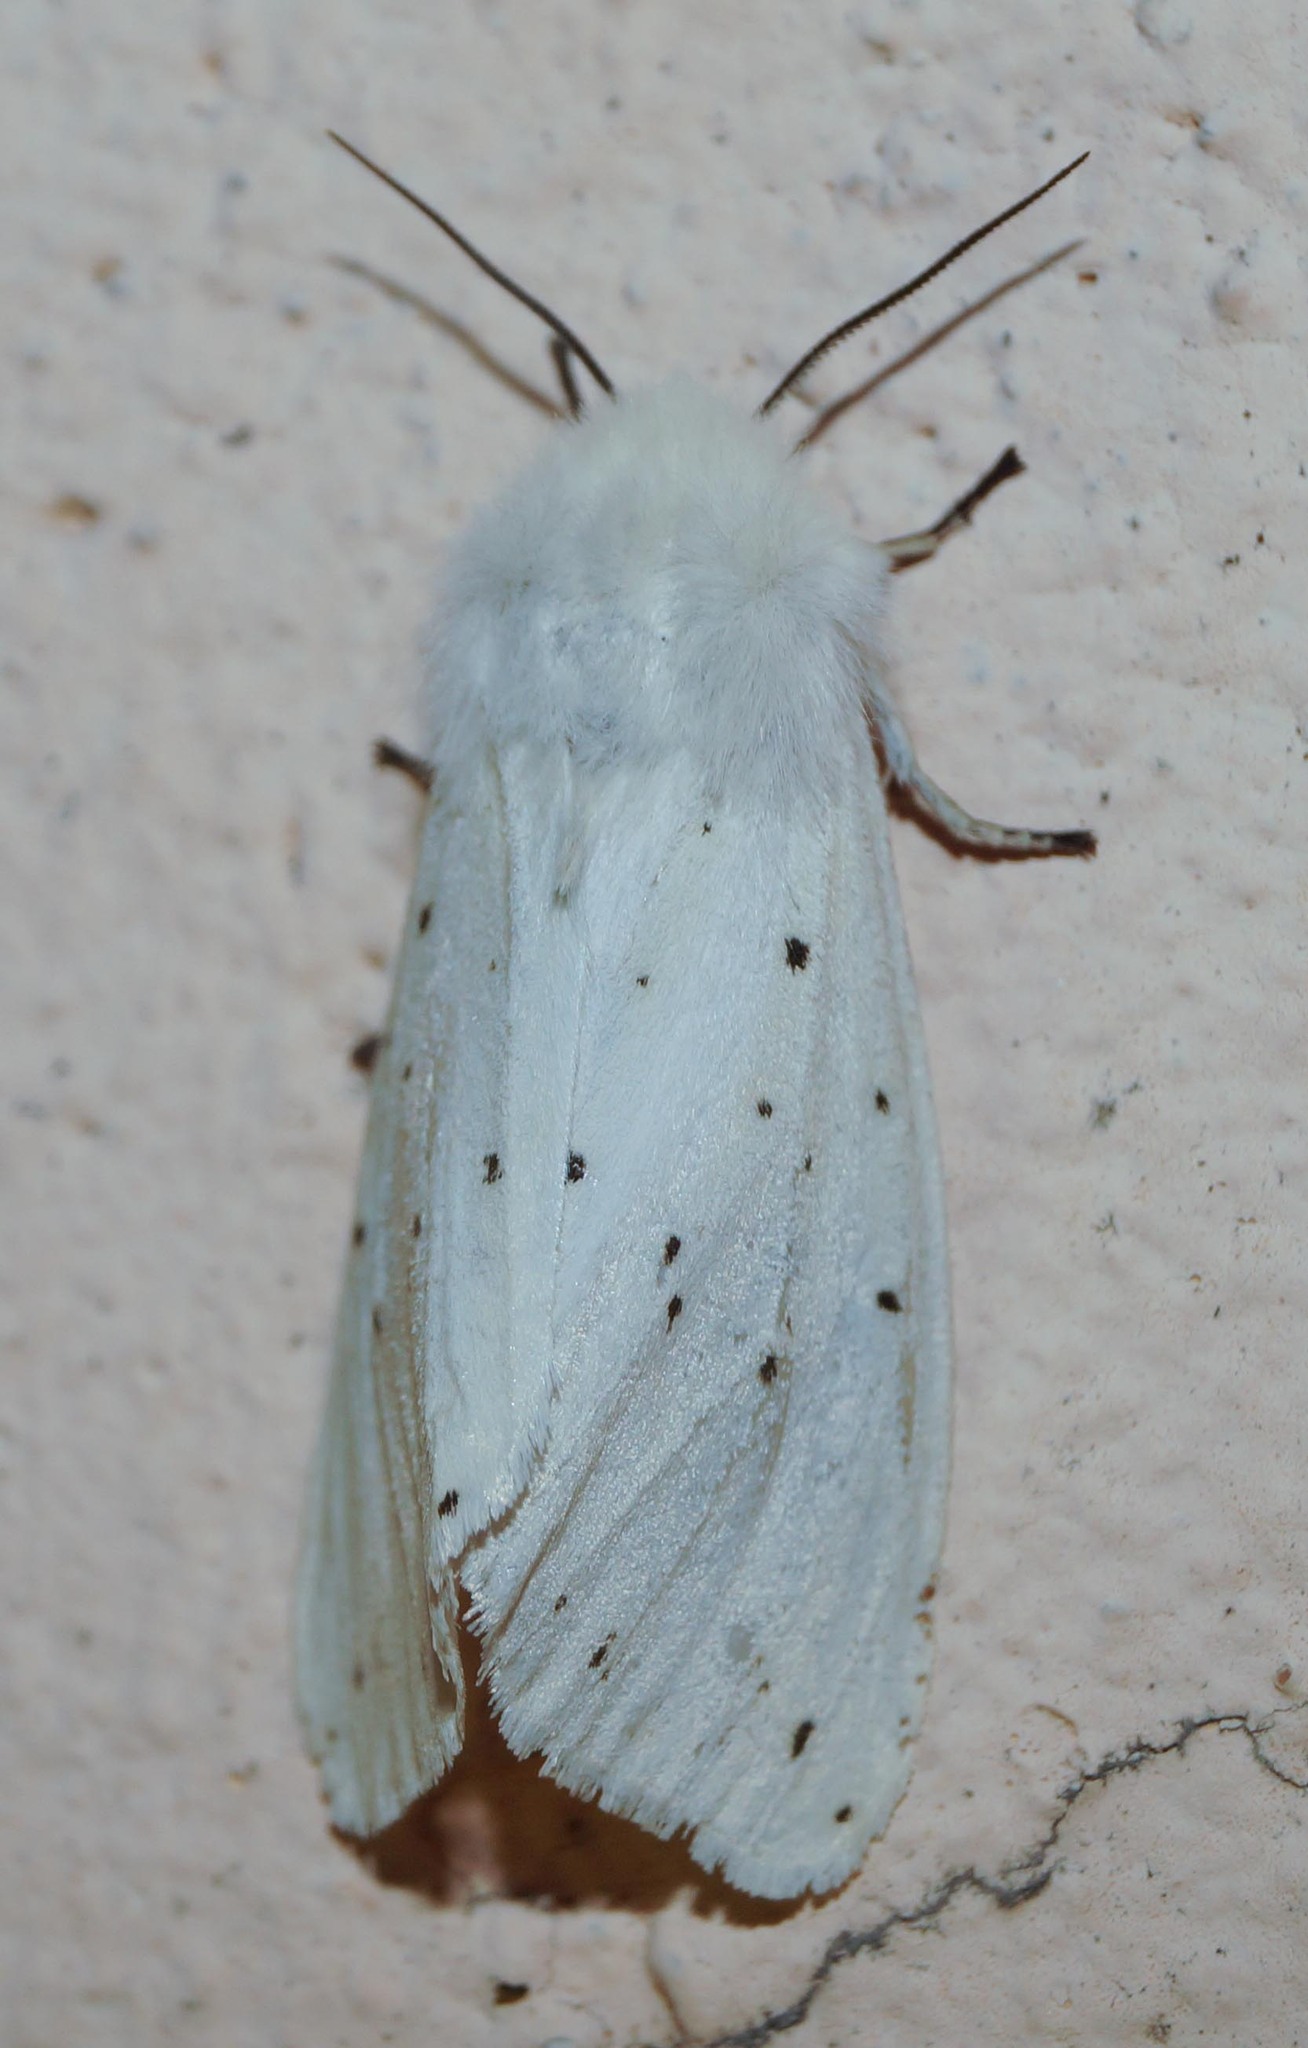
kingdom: Animalia
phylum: Arthropoda
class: Insecta
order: Lepidoptera
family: Erebidae
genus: Spilosoma
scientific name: Spilosoma lubricipeda
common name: White ermine
